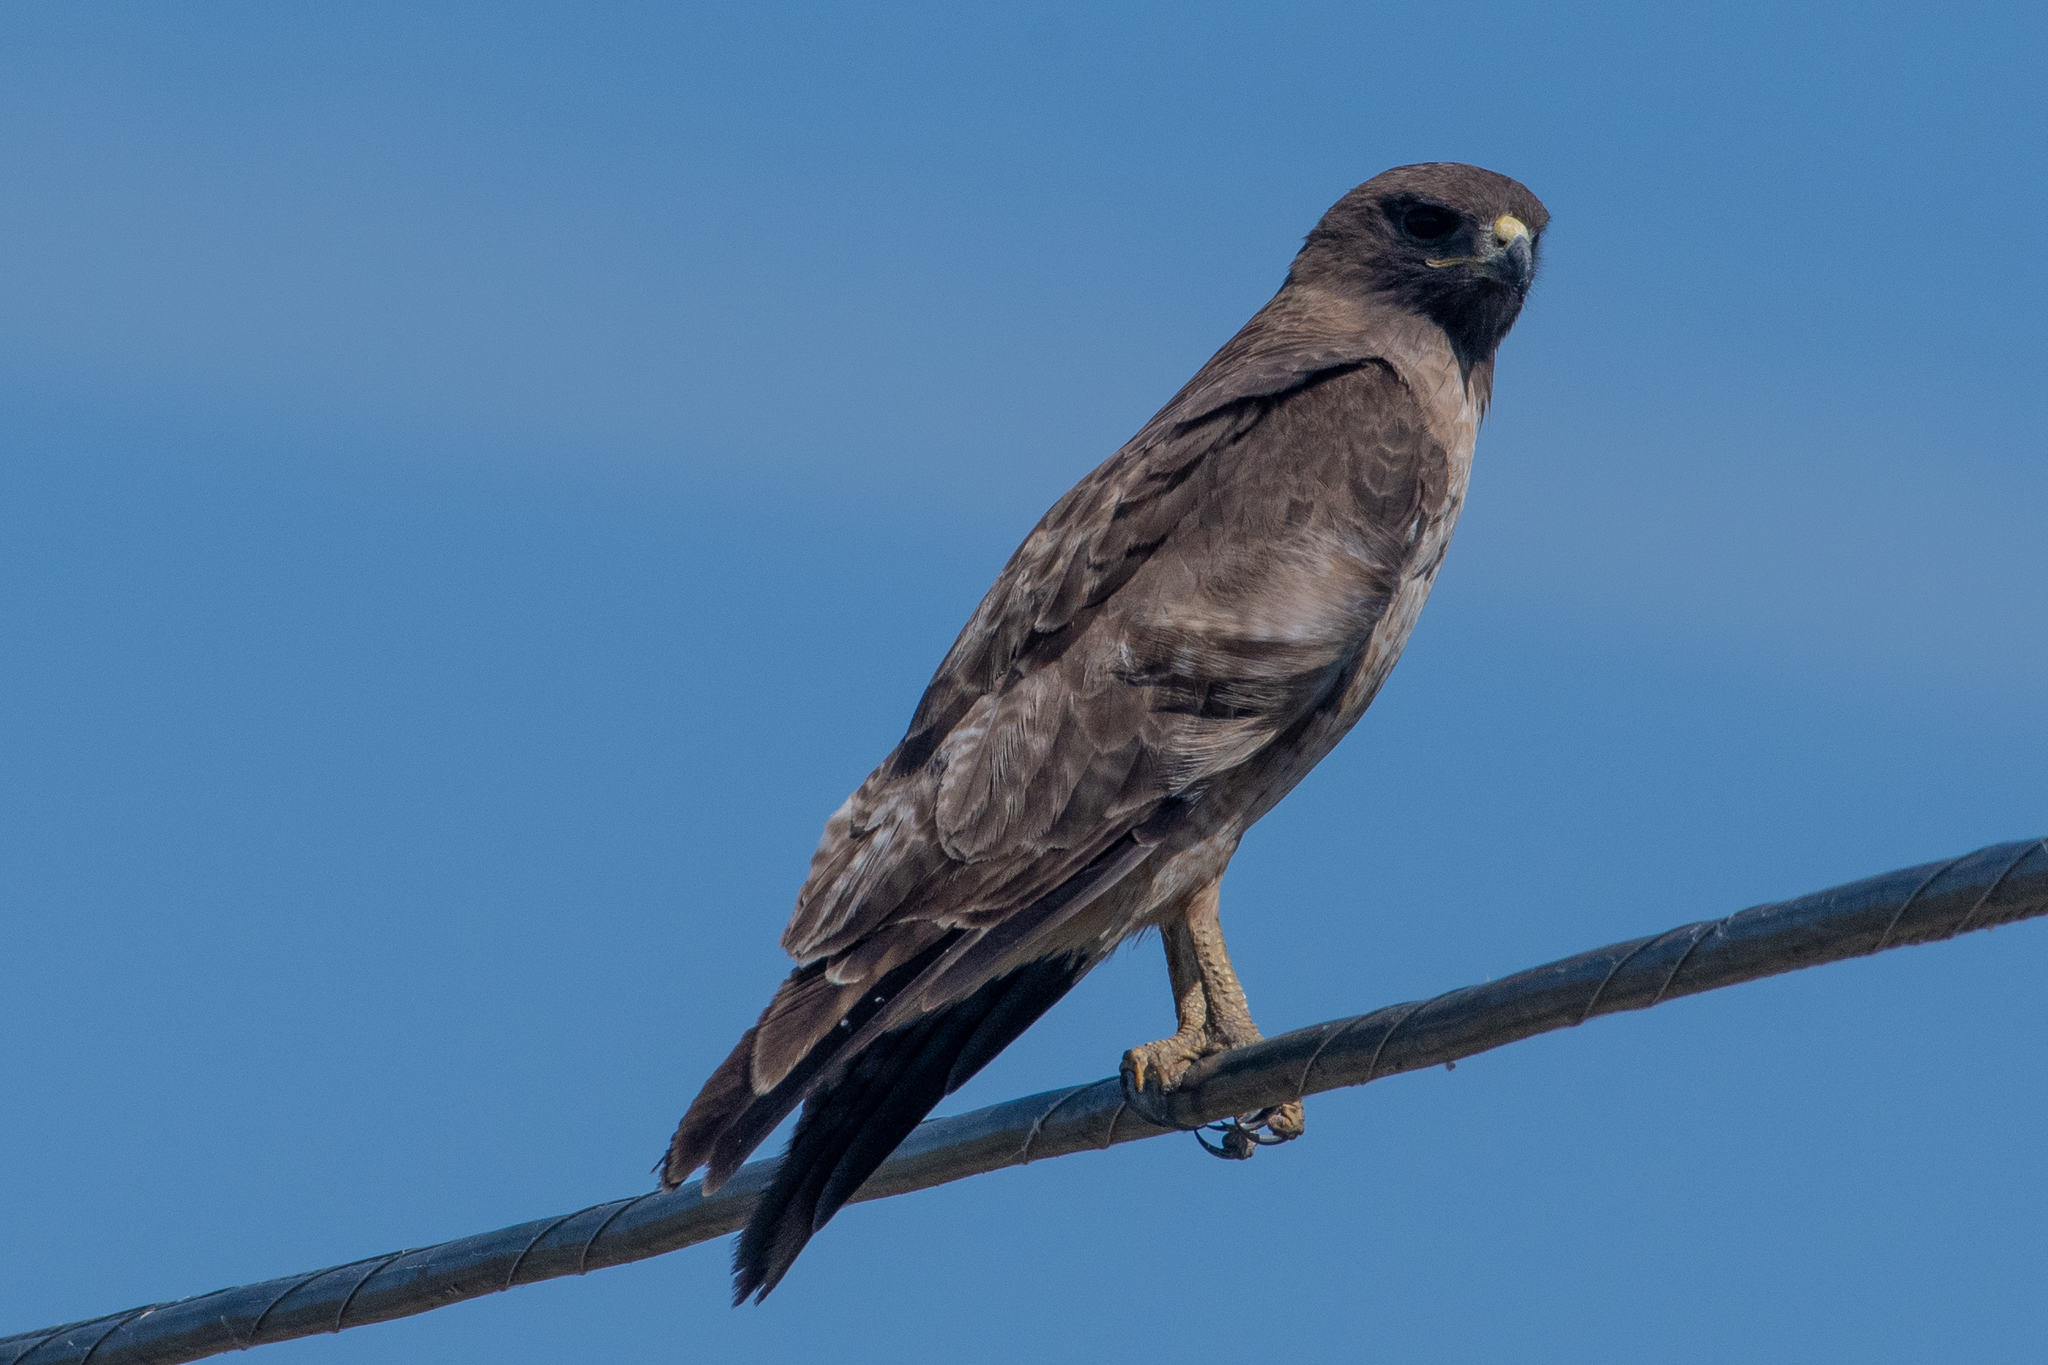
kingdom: Animalia
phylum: Chordata
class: Aves
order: Accipitriformes
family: Accipitridae
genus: Buteo
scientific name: Buteo jamaicensis
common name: Red-tailed hawk
